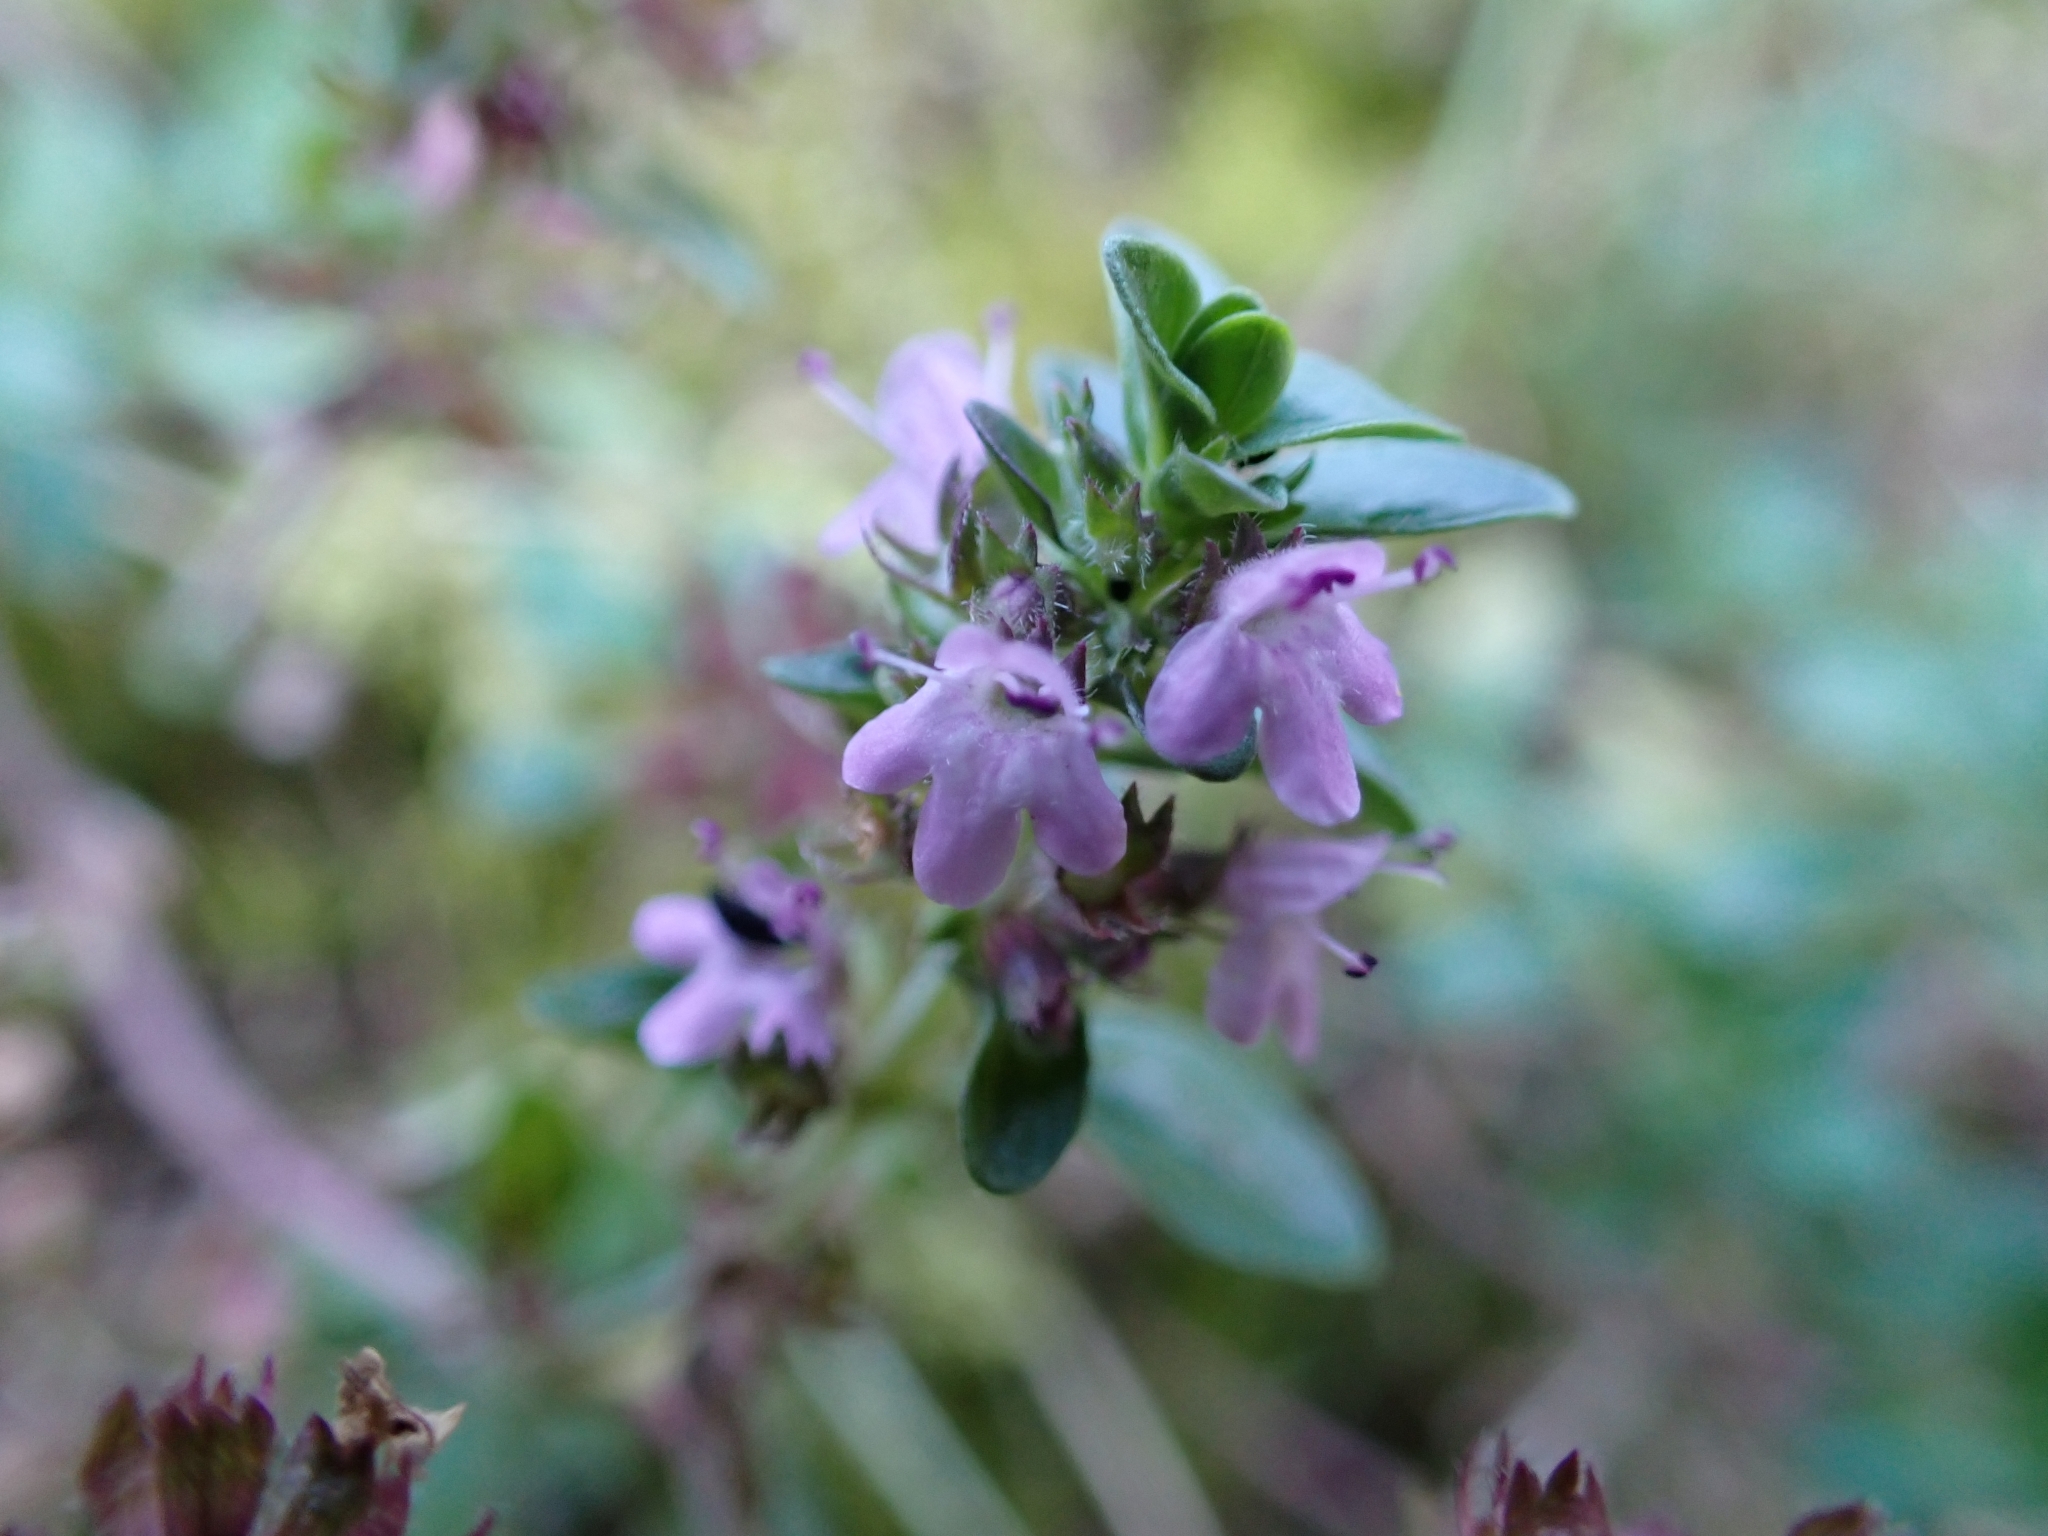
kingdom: Plantae
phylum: Tracheophyta
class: Magnoliopsida
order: Lamiales
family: Lamiaceae
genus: Thymus
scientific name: Thymus pulegioides
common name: Large thyme
